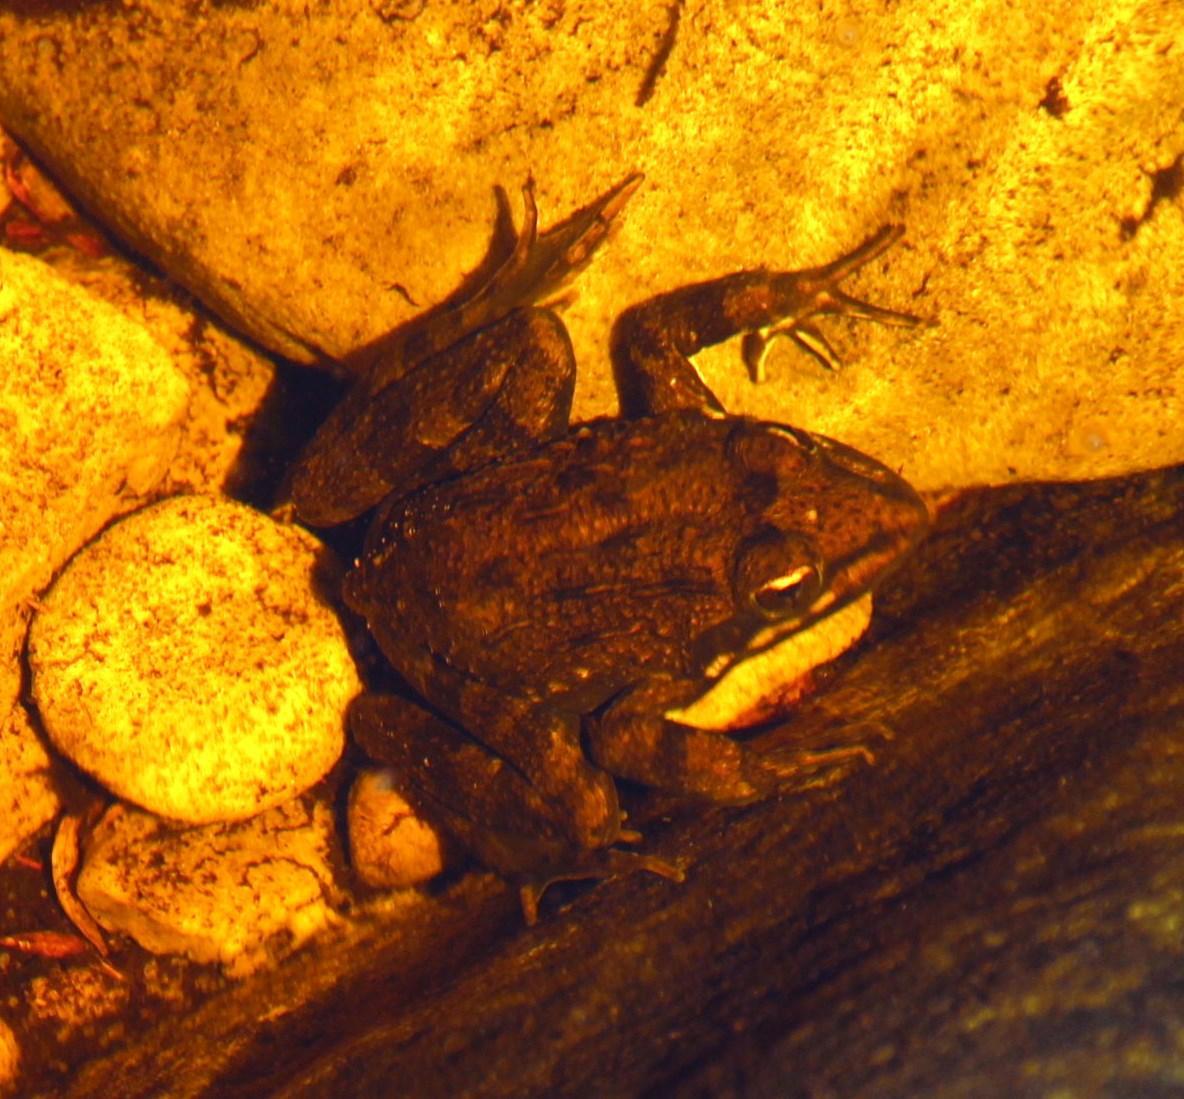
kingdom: Animalia
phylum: Chordata
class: Amphibia
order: Anura
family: Pyxicephalidae
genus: Amietia
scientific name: Amietia fuscigula
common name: Cape rana
